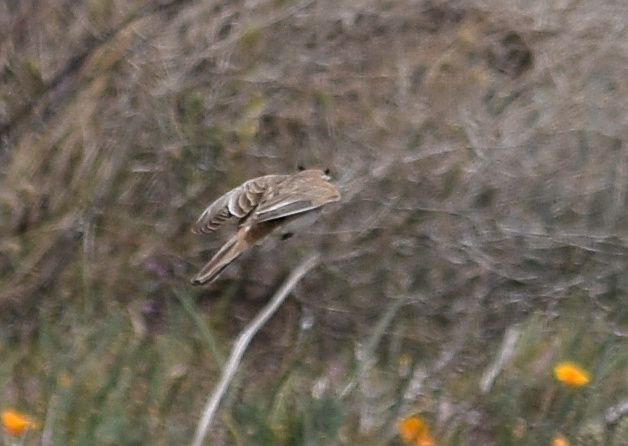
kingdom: Animalia
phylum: Chordata
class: Aves
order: Passeriformes
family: Alaudidae
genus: Eremophila
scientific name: Eremophila alpestris
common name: Horned lark
